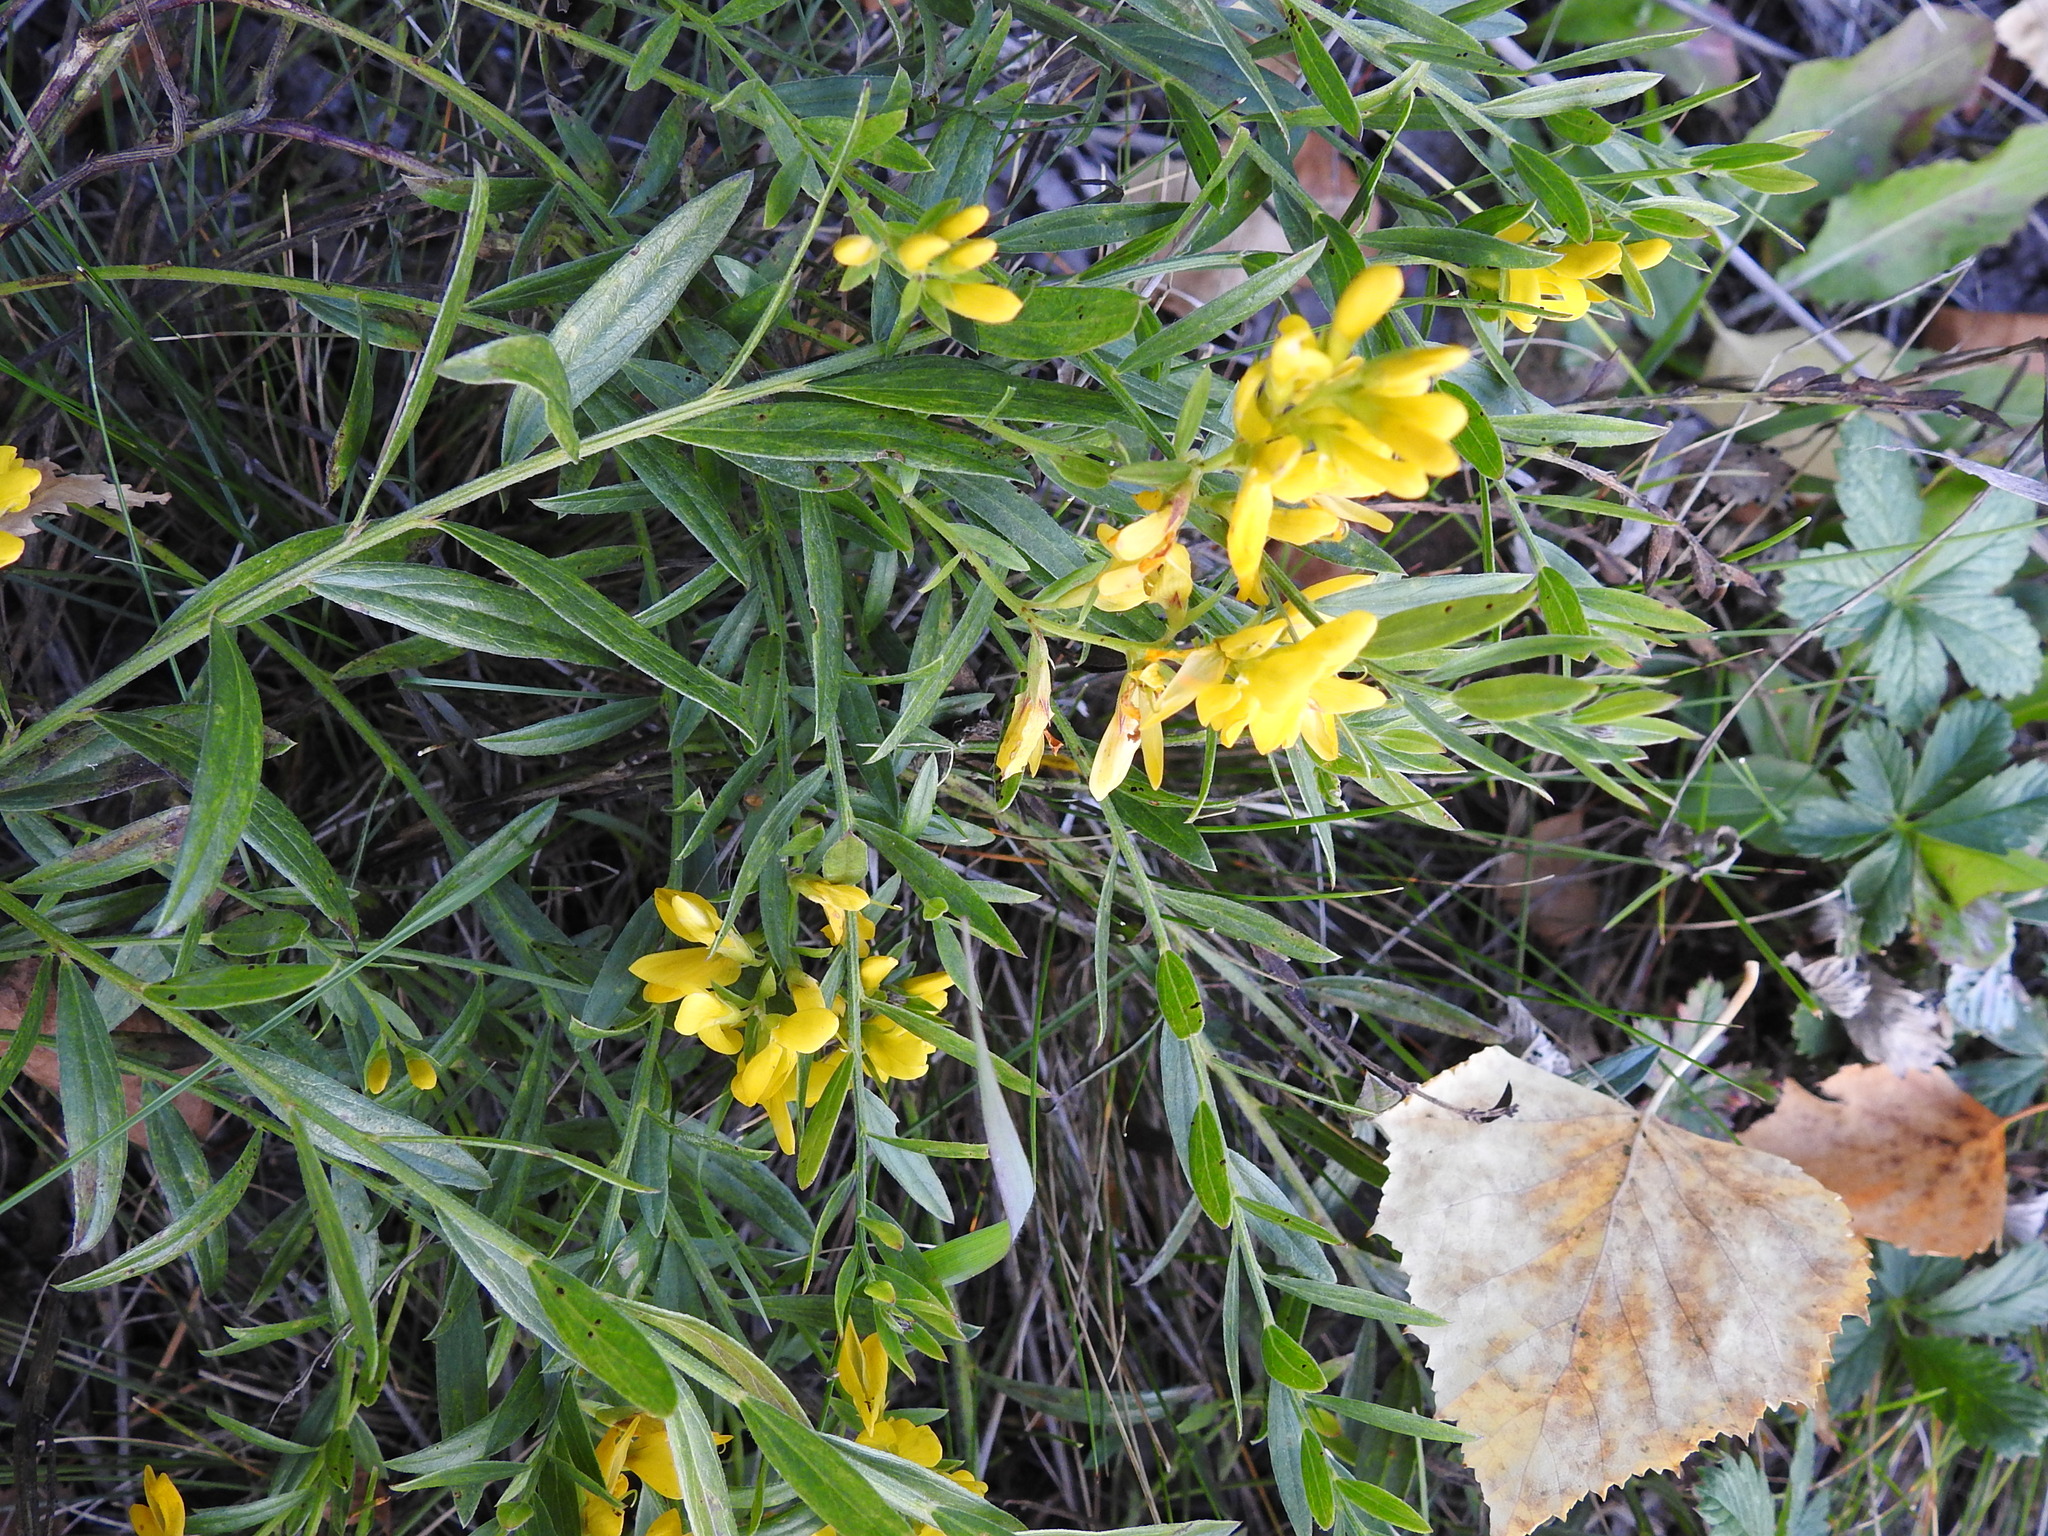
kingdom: Plantae
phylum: Tracheophyta
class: Magnoliopsida
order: Fabales
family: Fabaceae
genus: Genista
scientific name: Genista tinctoria
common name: Dyer's greenweed
